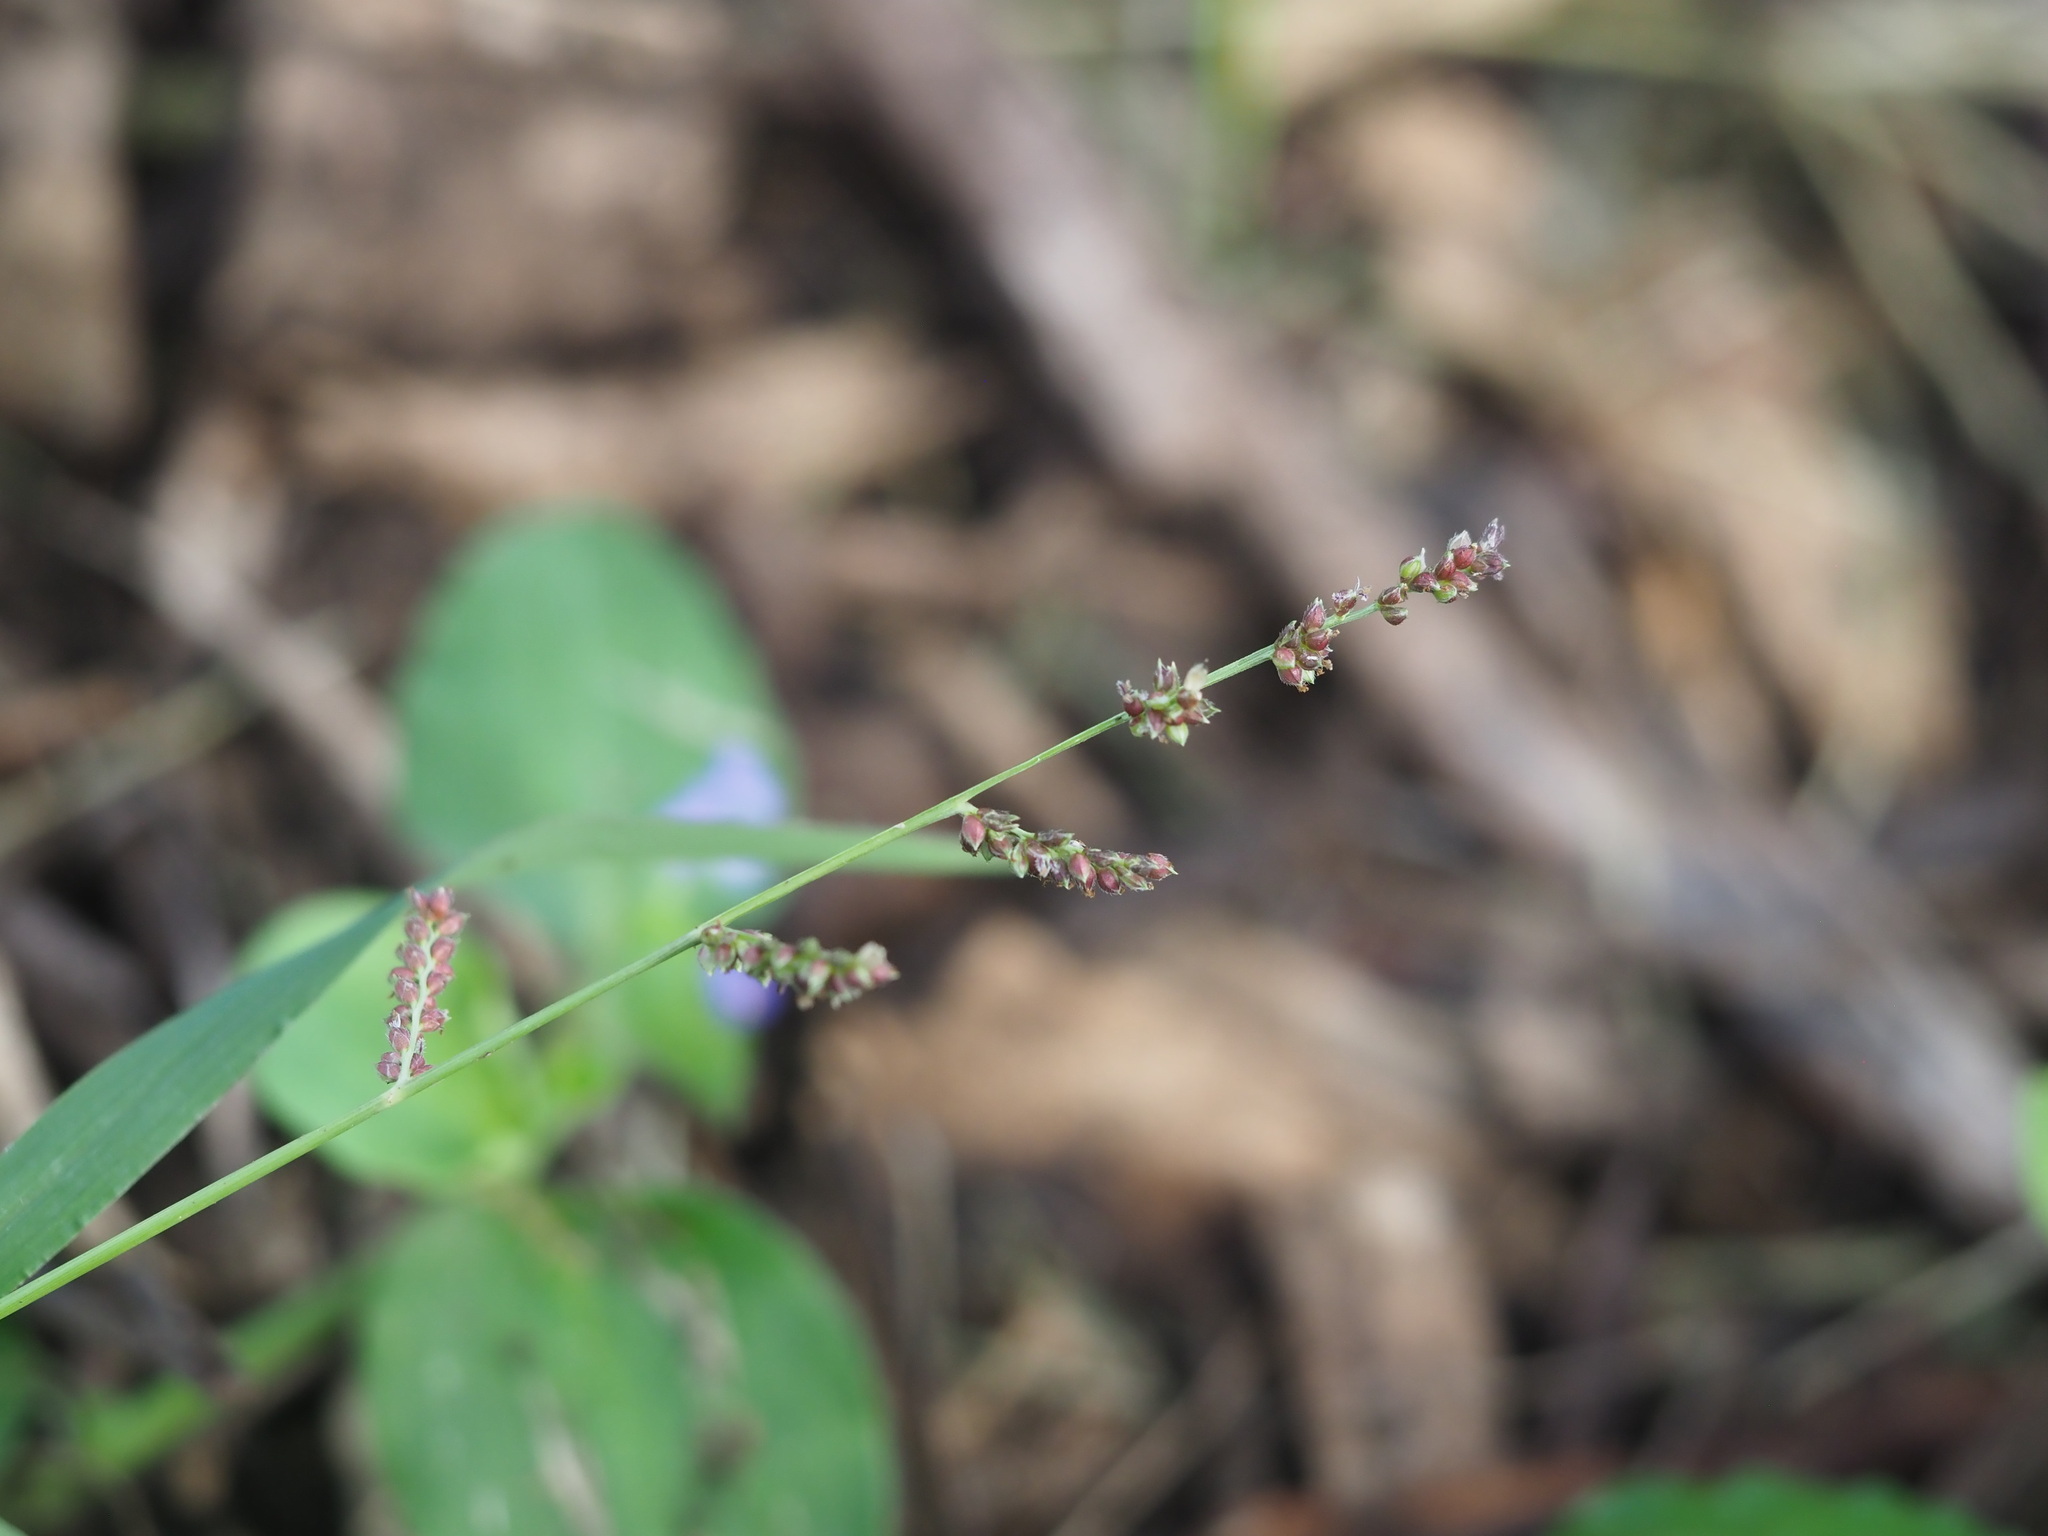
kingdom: Plantae
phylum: Tracheophyta
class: Liliopsida
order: Poales
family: Poaceae
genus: Echinochloa
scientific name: Echinochloa colonum
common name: Jungle rice
